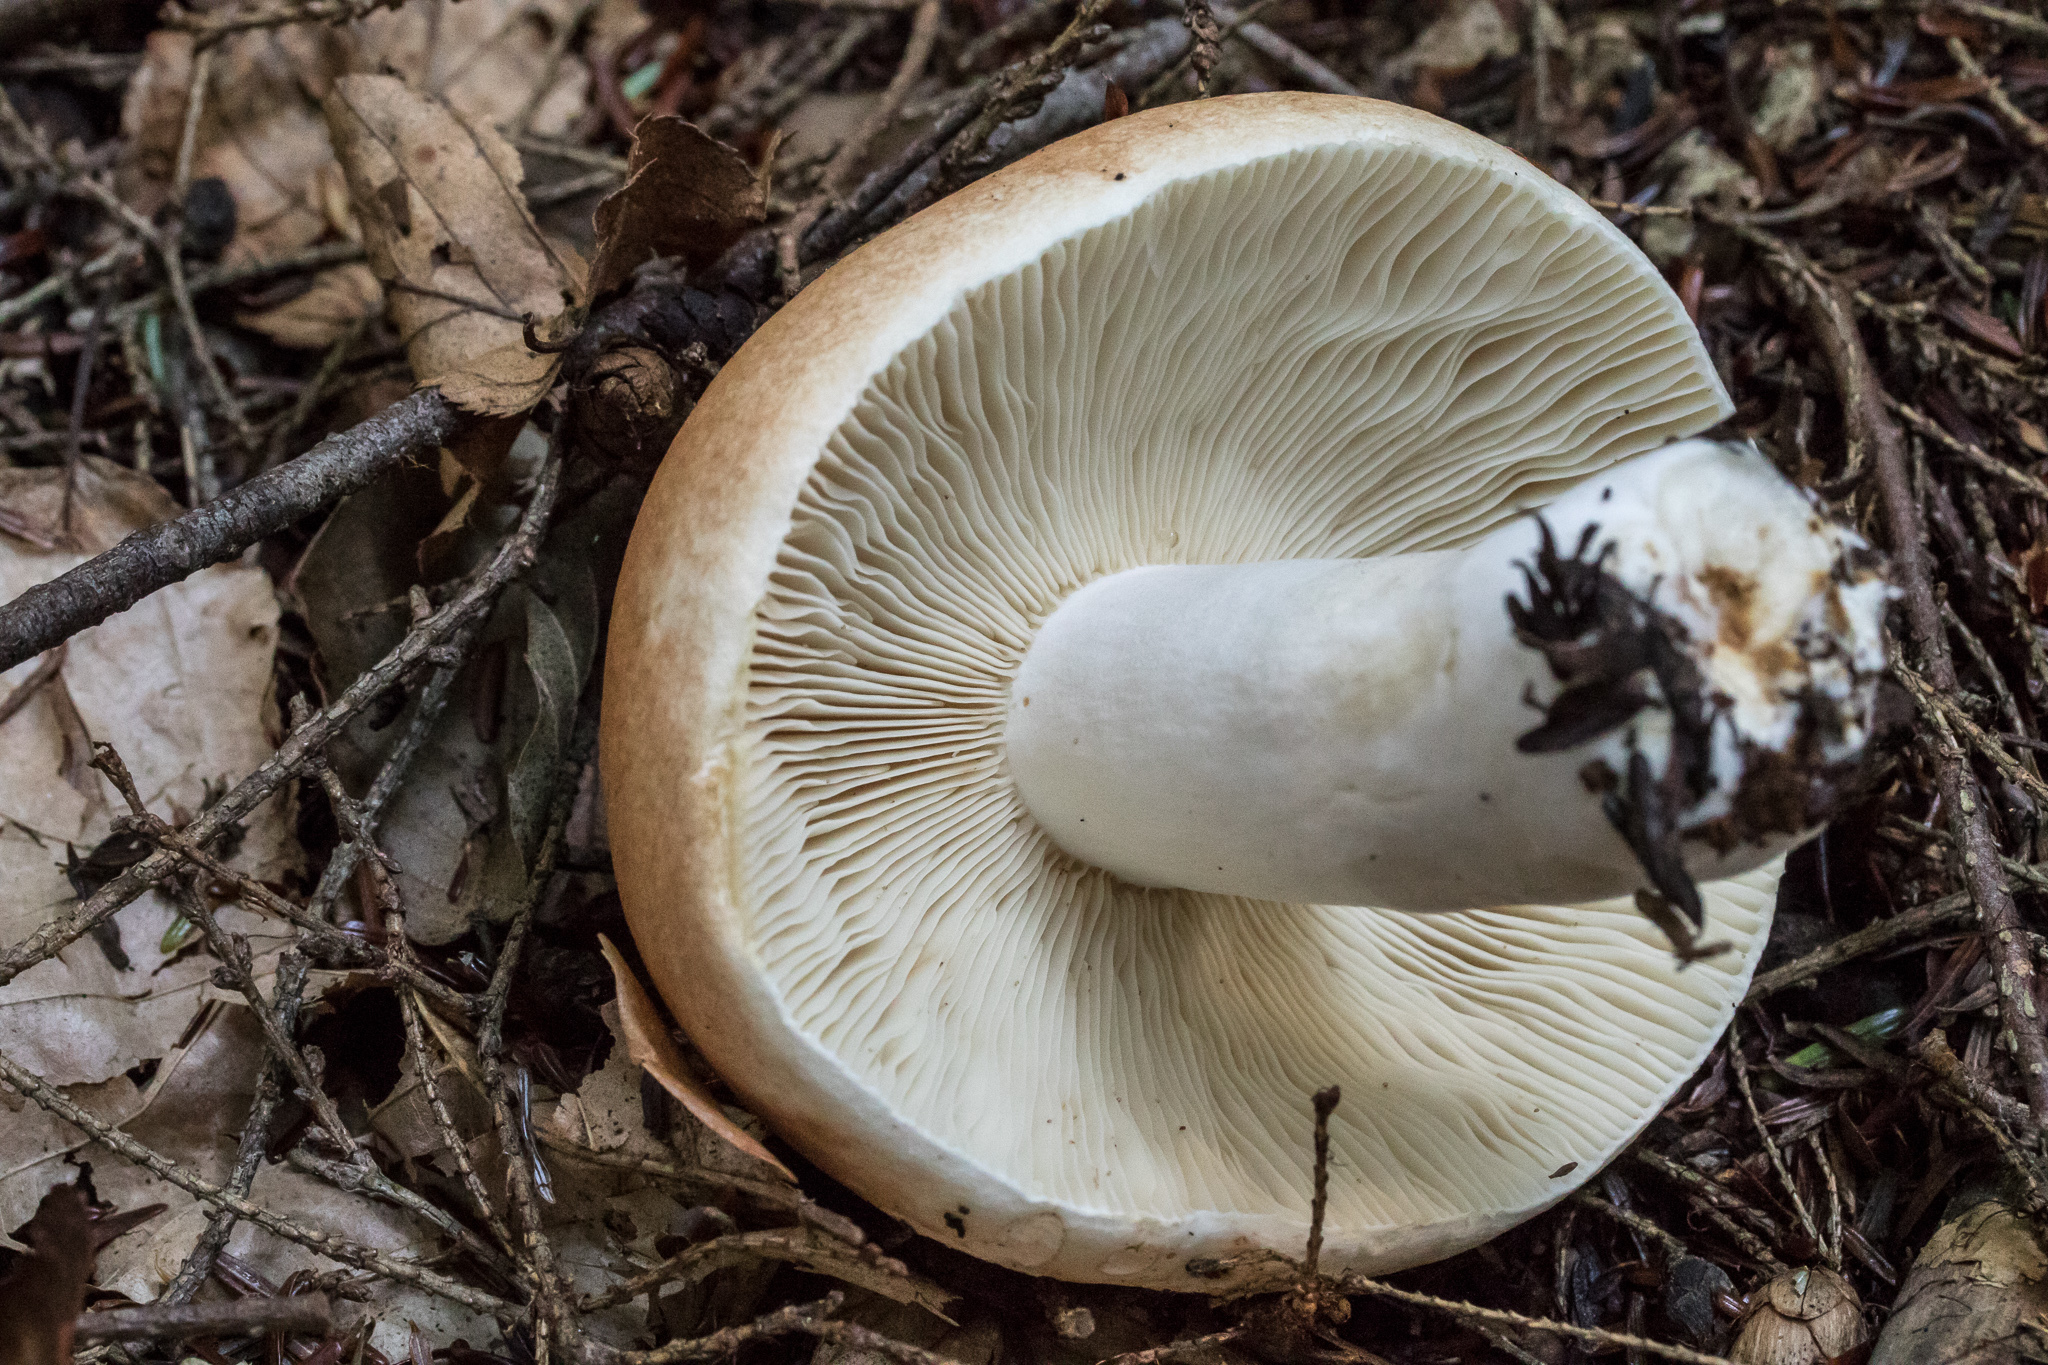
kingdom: Fungi
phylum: Basidiomycota
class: Agaricomycetes
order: Russulales
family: Russulaceae
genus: Russula
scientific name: Russula compacta
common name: Fishbiscuit russula
